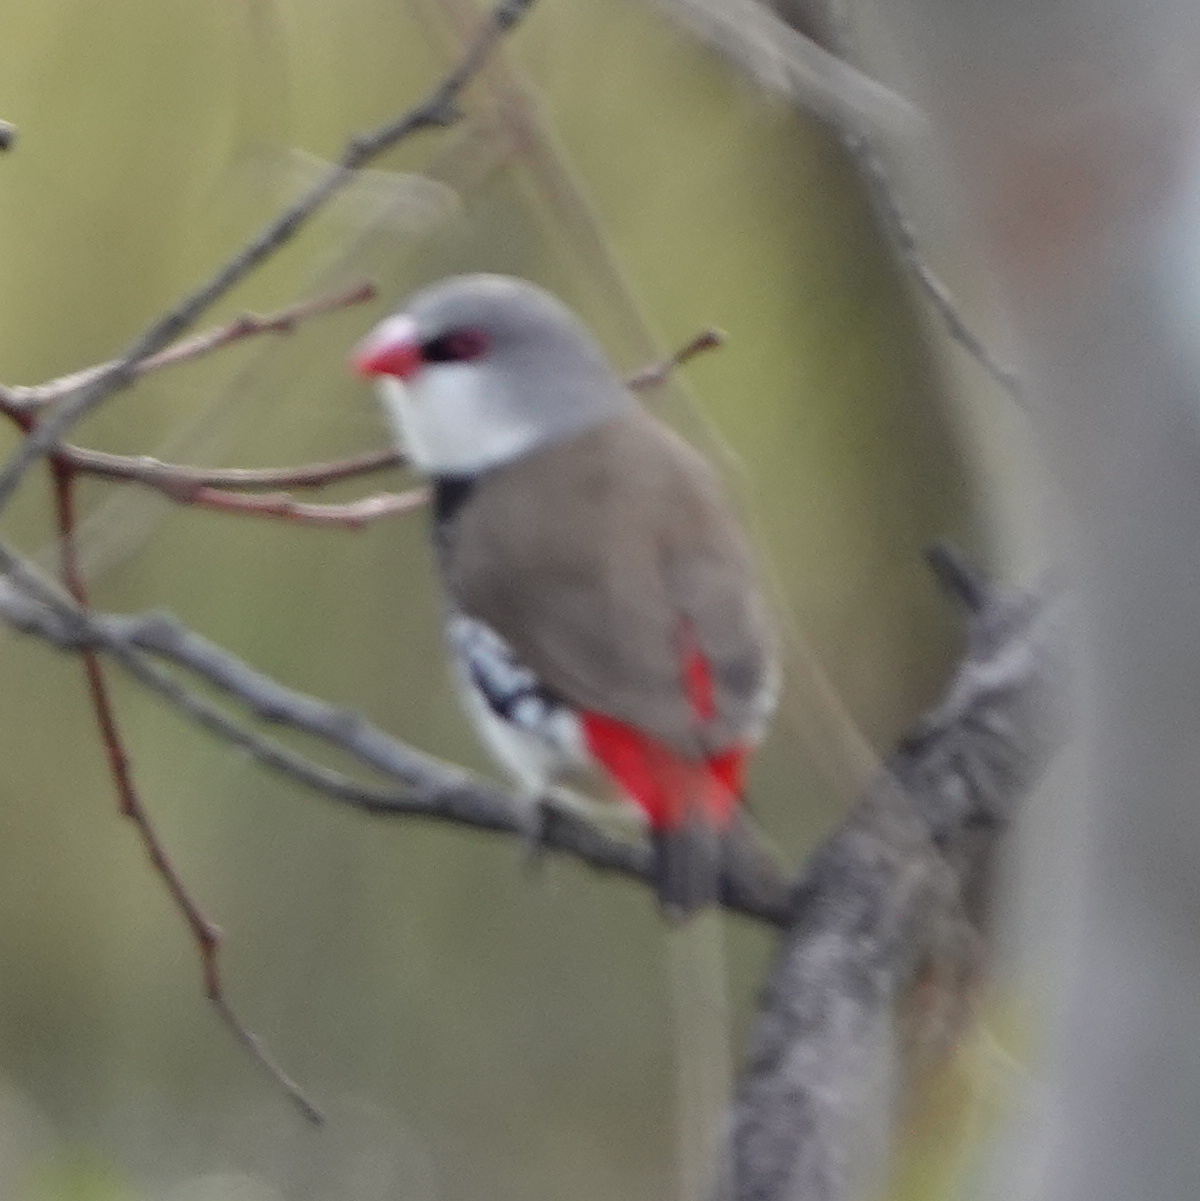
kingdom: Animalia
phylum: Chordata
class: Aves
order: Passeriformes
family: Estrildidae
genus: Stagonopleura
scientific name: Stagonopleura guttata
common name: Diamond firetail
